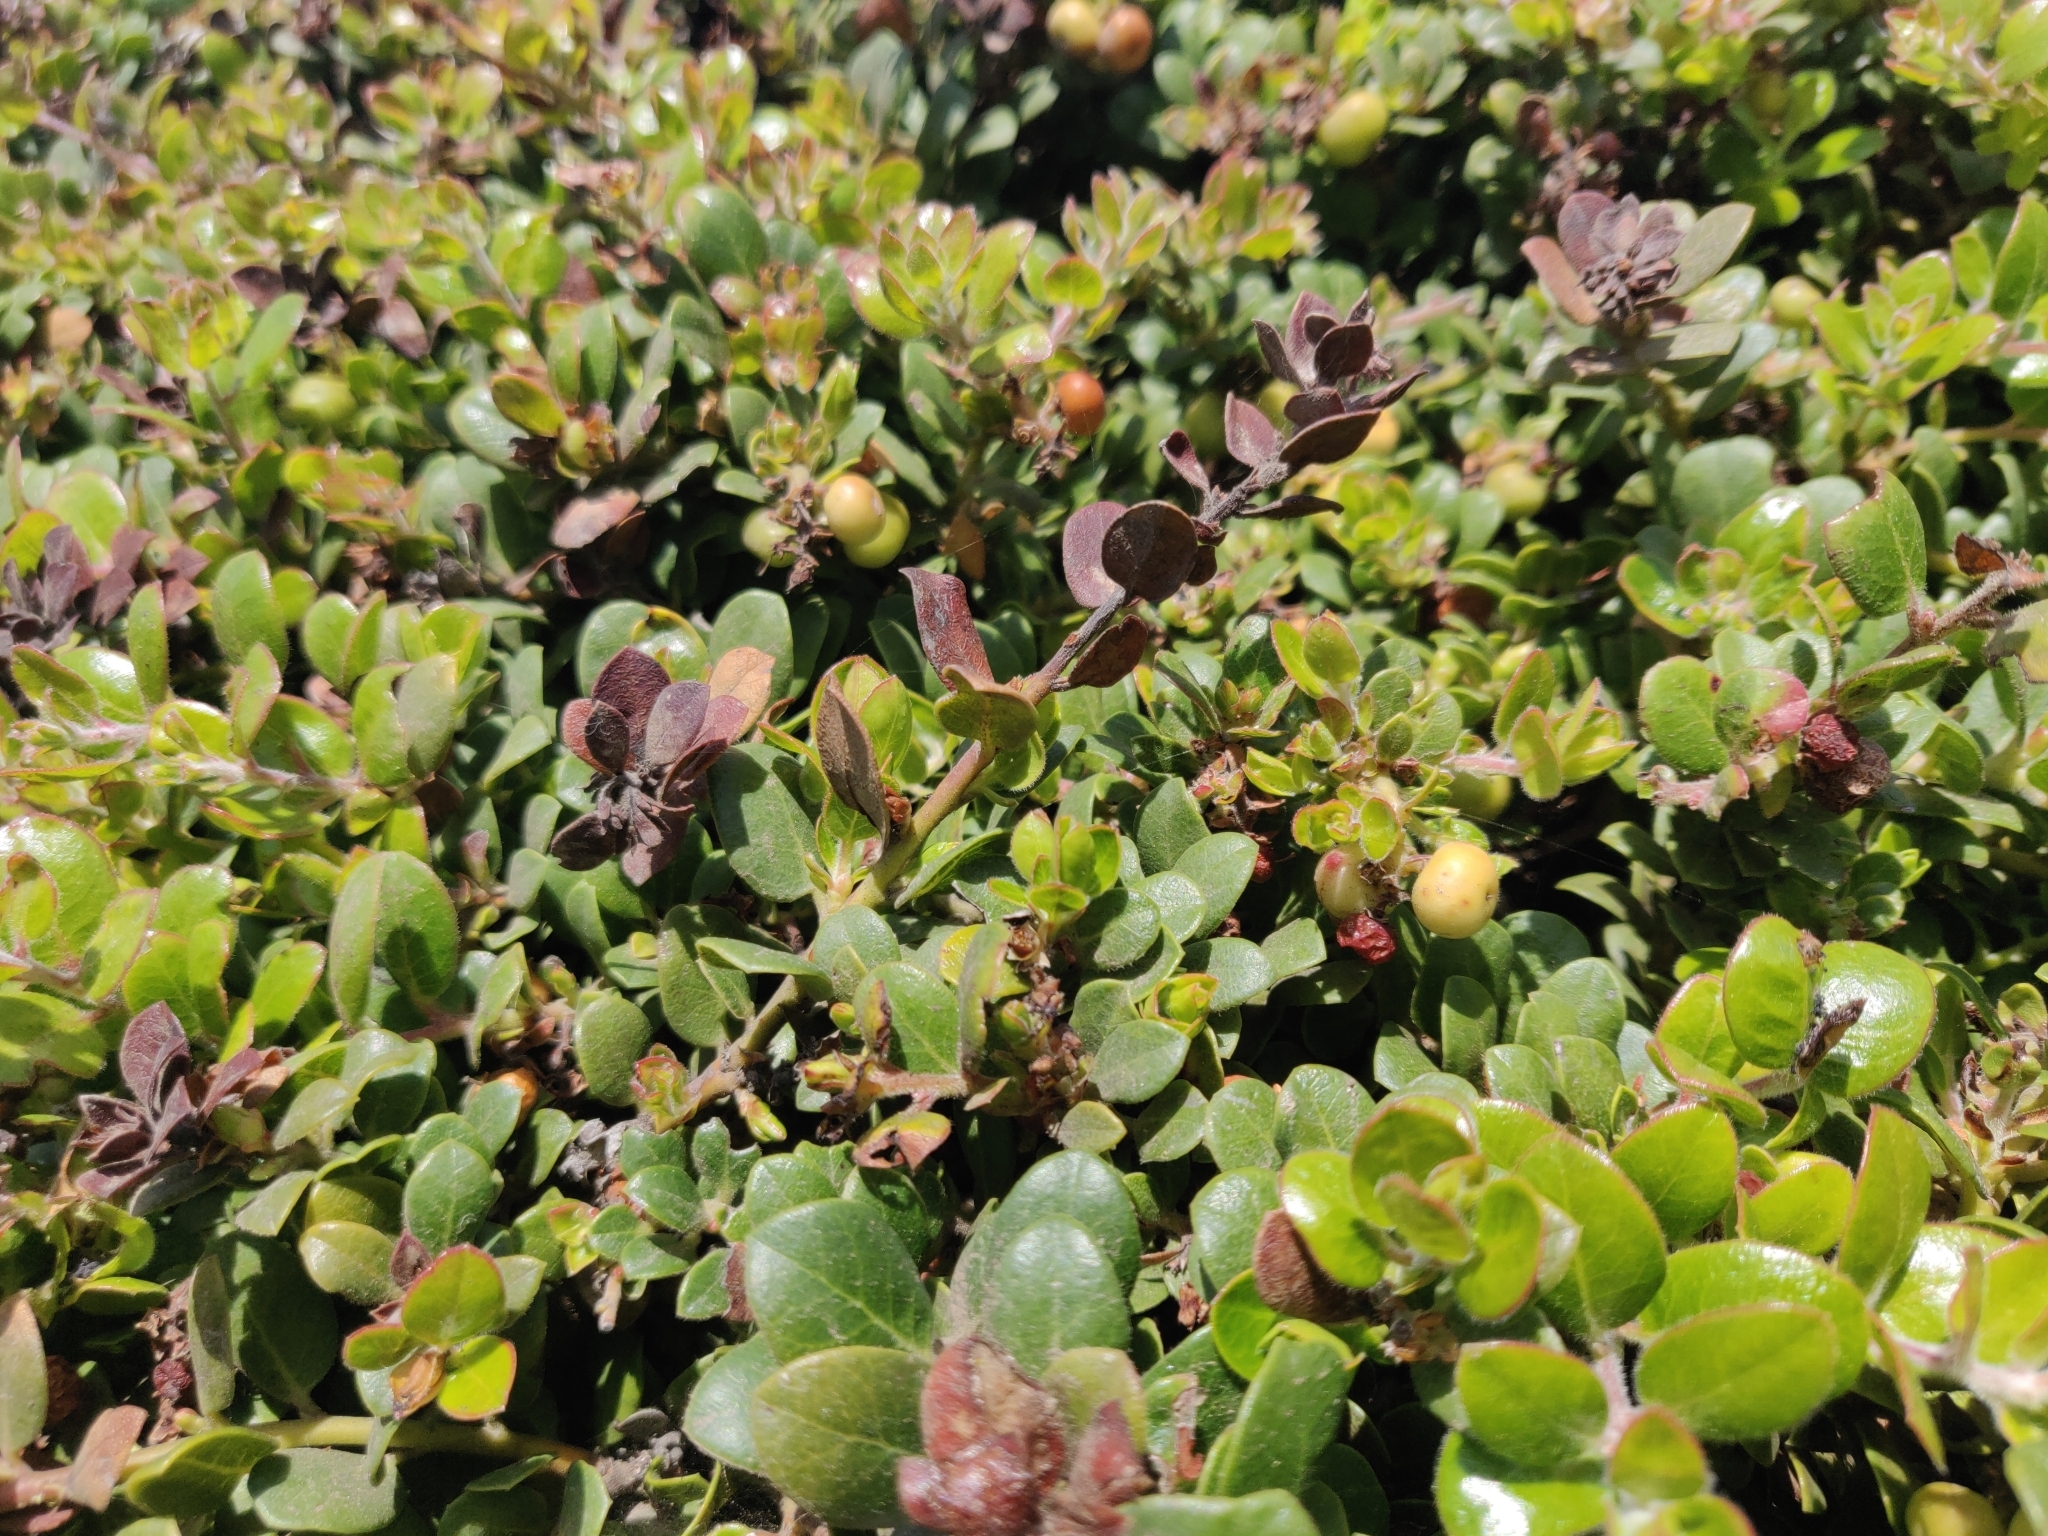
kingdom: Plantae
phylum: Tracheophyta
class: Magnoliopsida
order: Ericales
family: Ericaceae
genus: Arctostaphylos
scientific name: Arctostaphylos edmundsii
